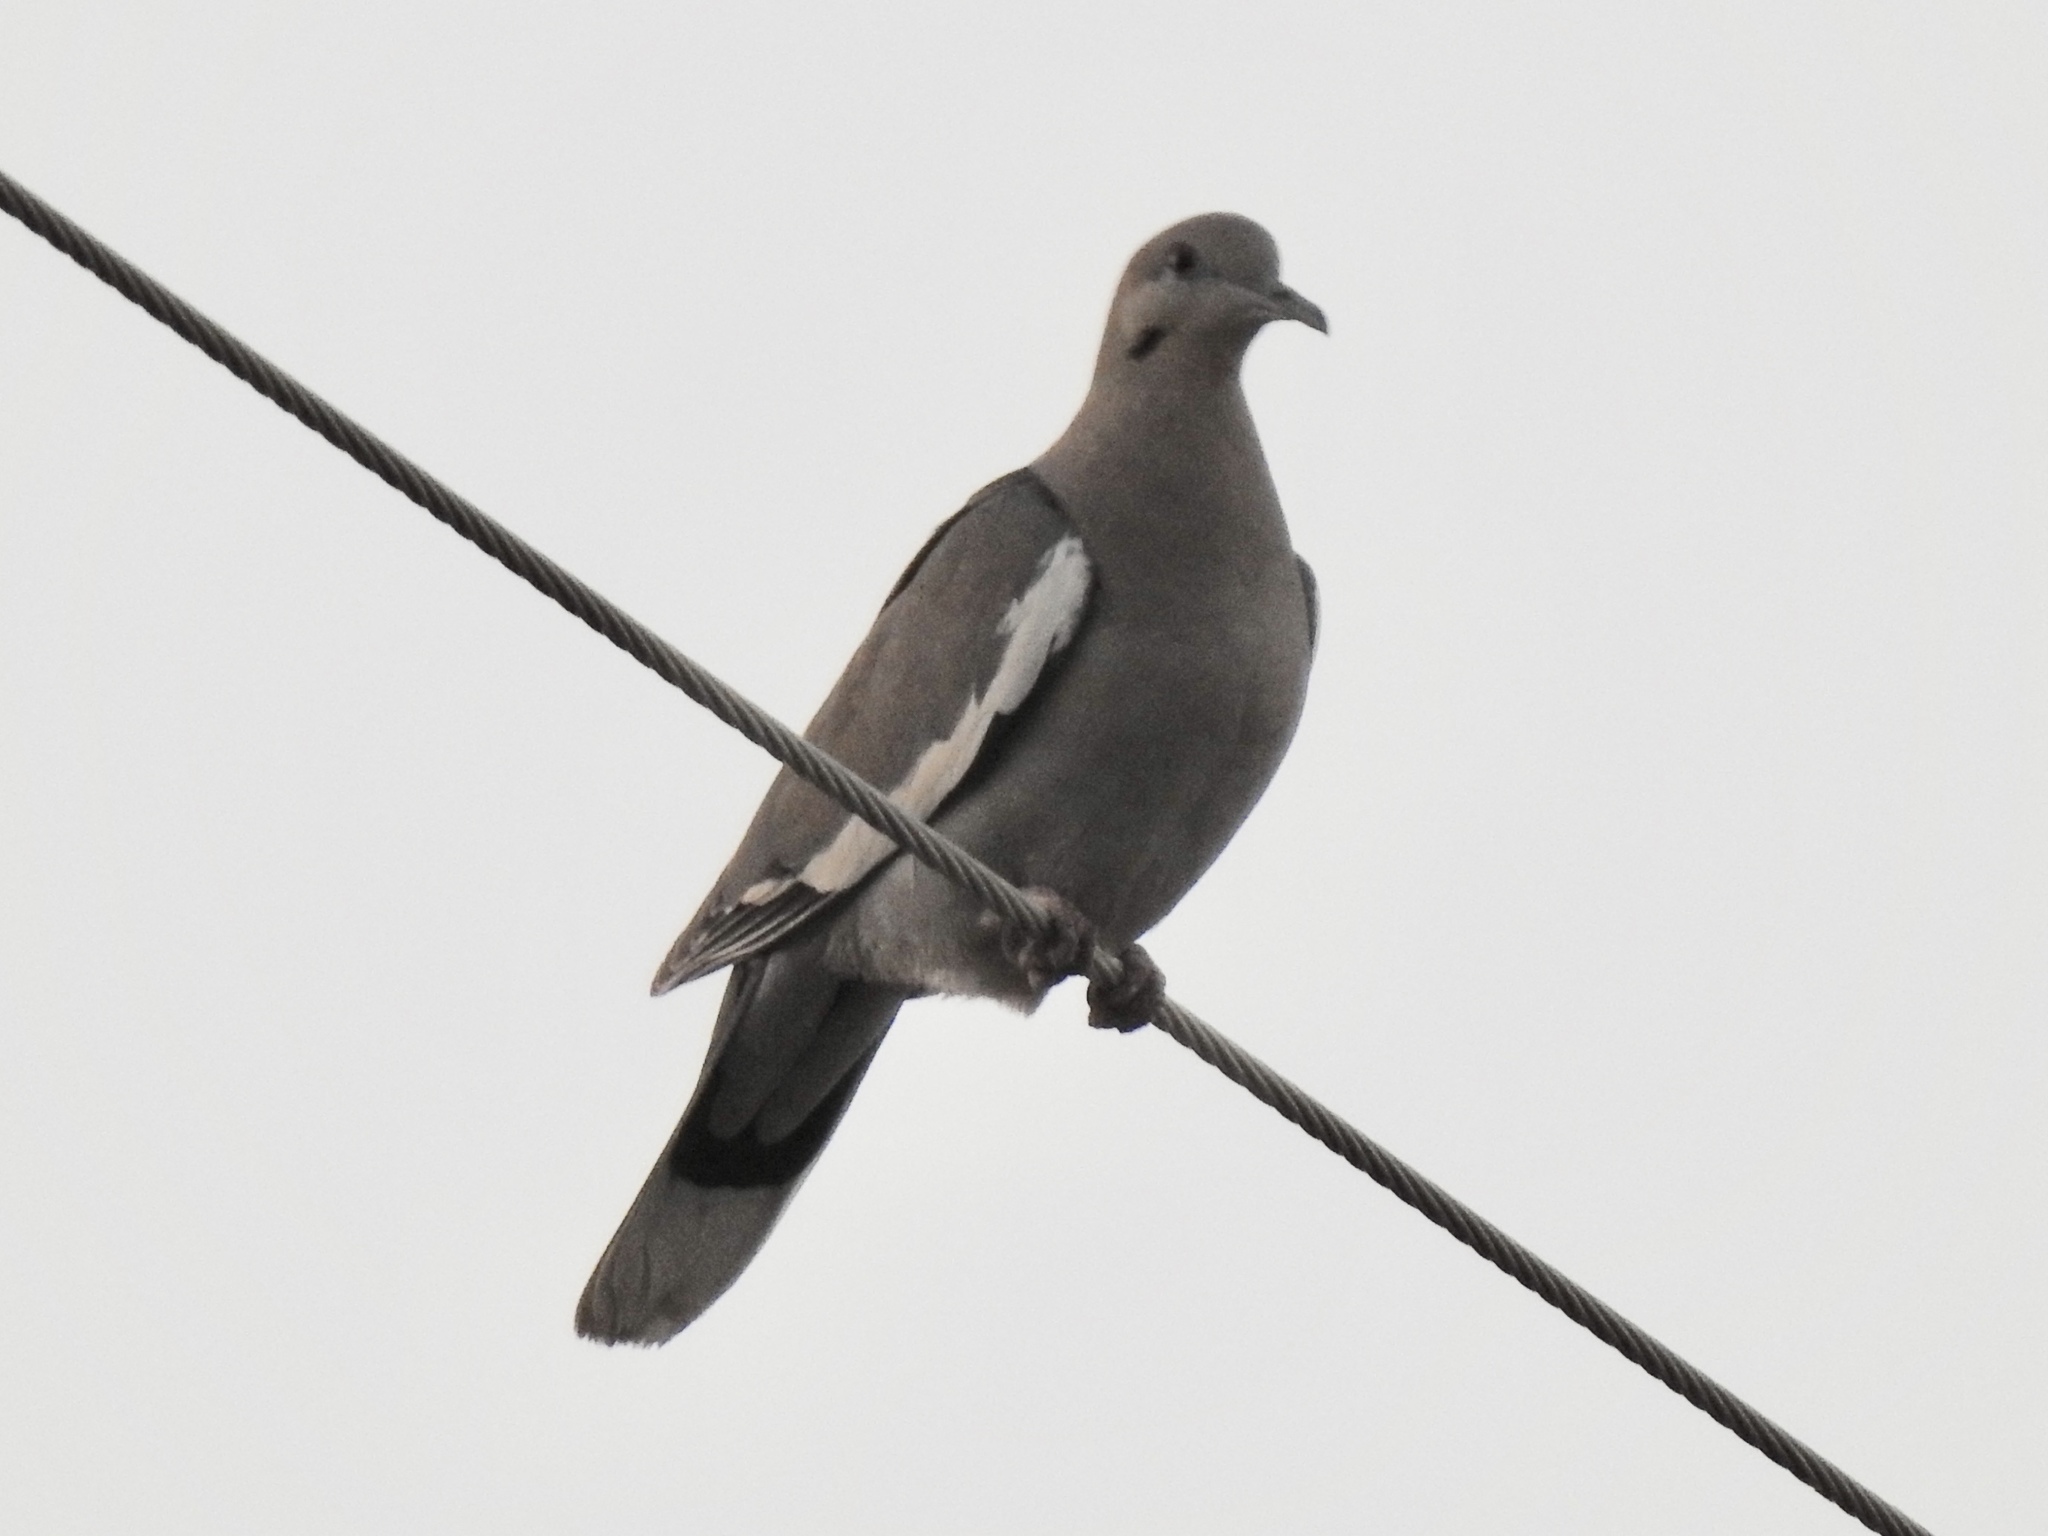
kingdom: Animalia
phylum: Chordata
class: Aves
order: Columbiformes
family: Columbidae
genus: Zenaida
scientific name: Zenaida asiatica
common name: White-winged dove
